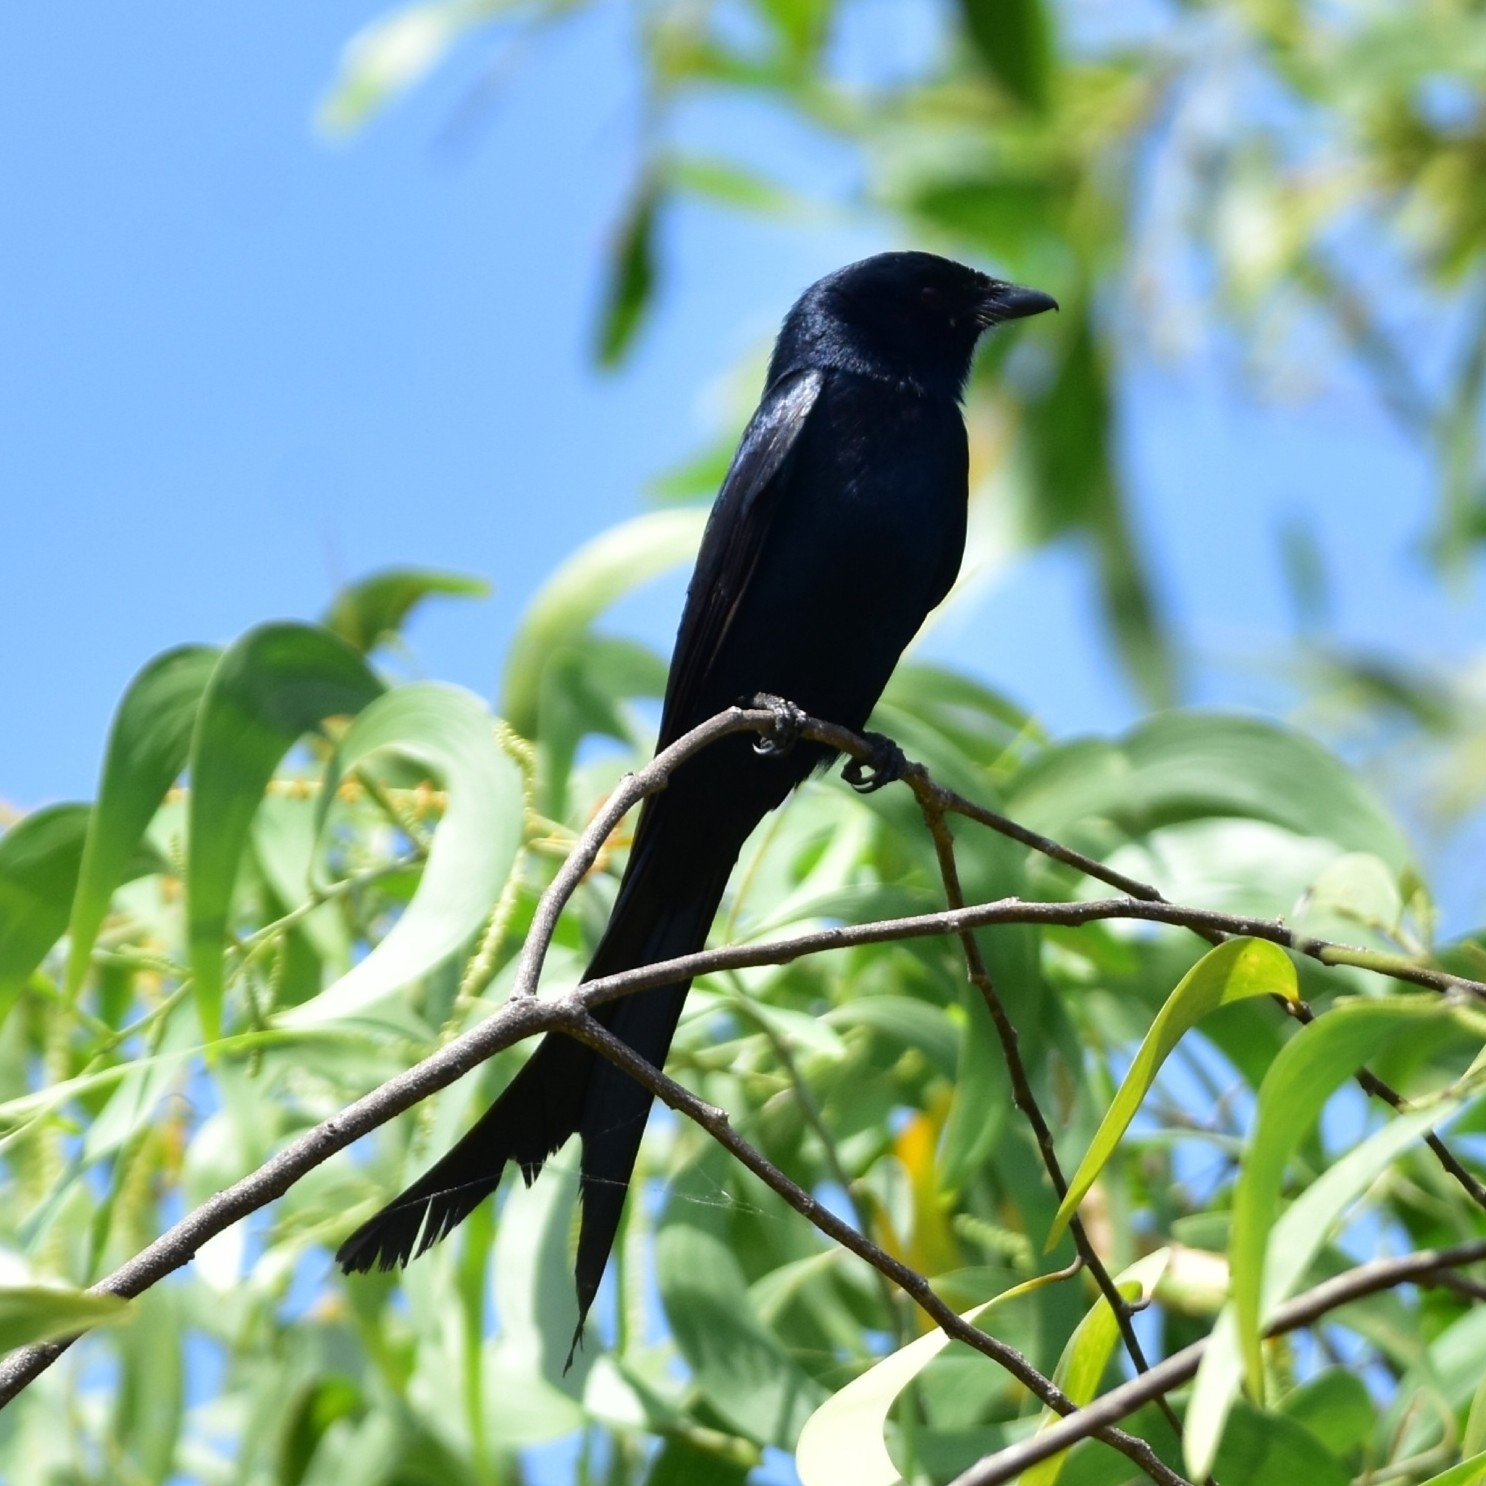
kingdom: Animalia
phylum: Chordata
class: Aves
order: Passeriformes
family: Dicruridae
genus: Dicrurus
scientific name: Dicrurus macrocercus
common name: Black drongo
